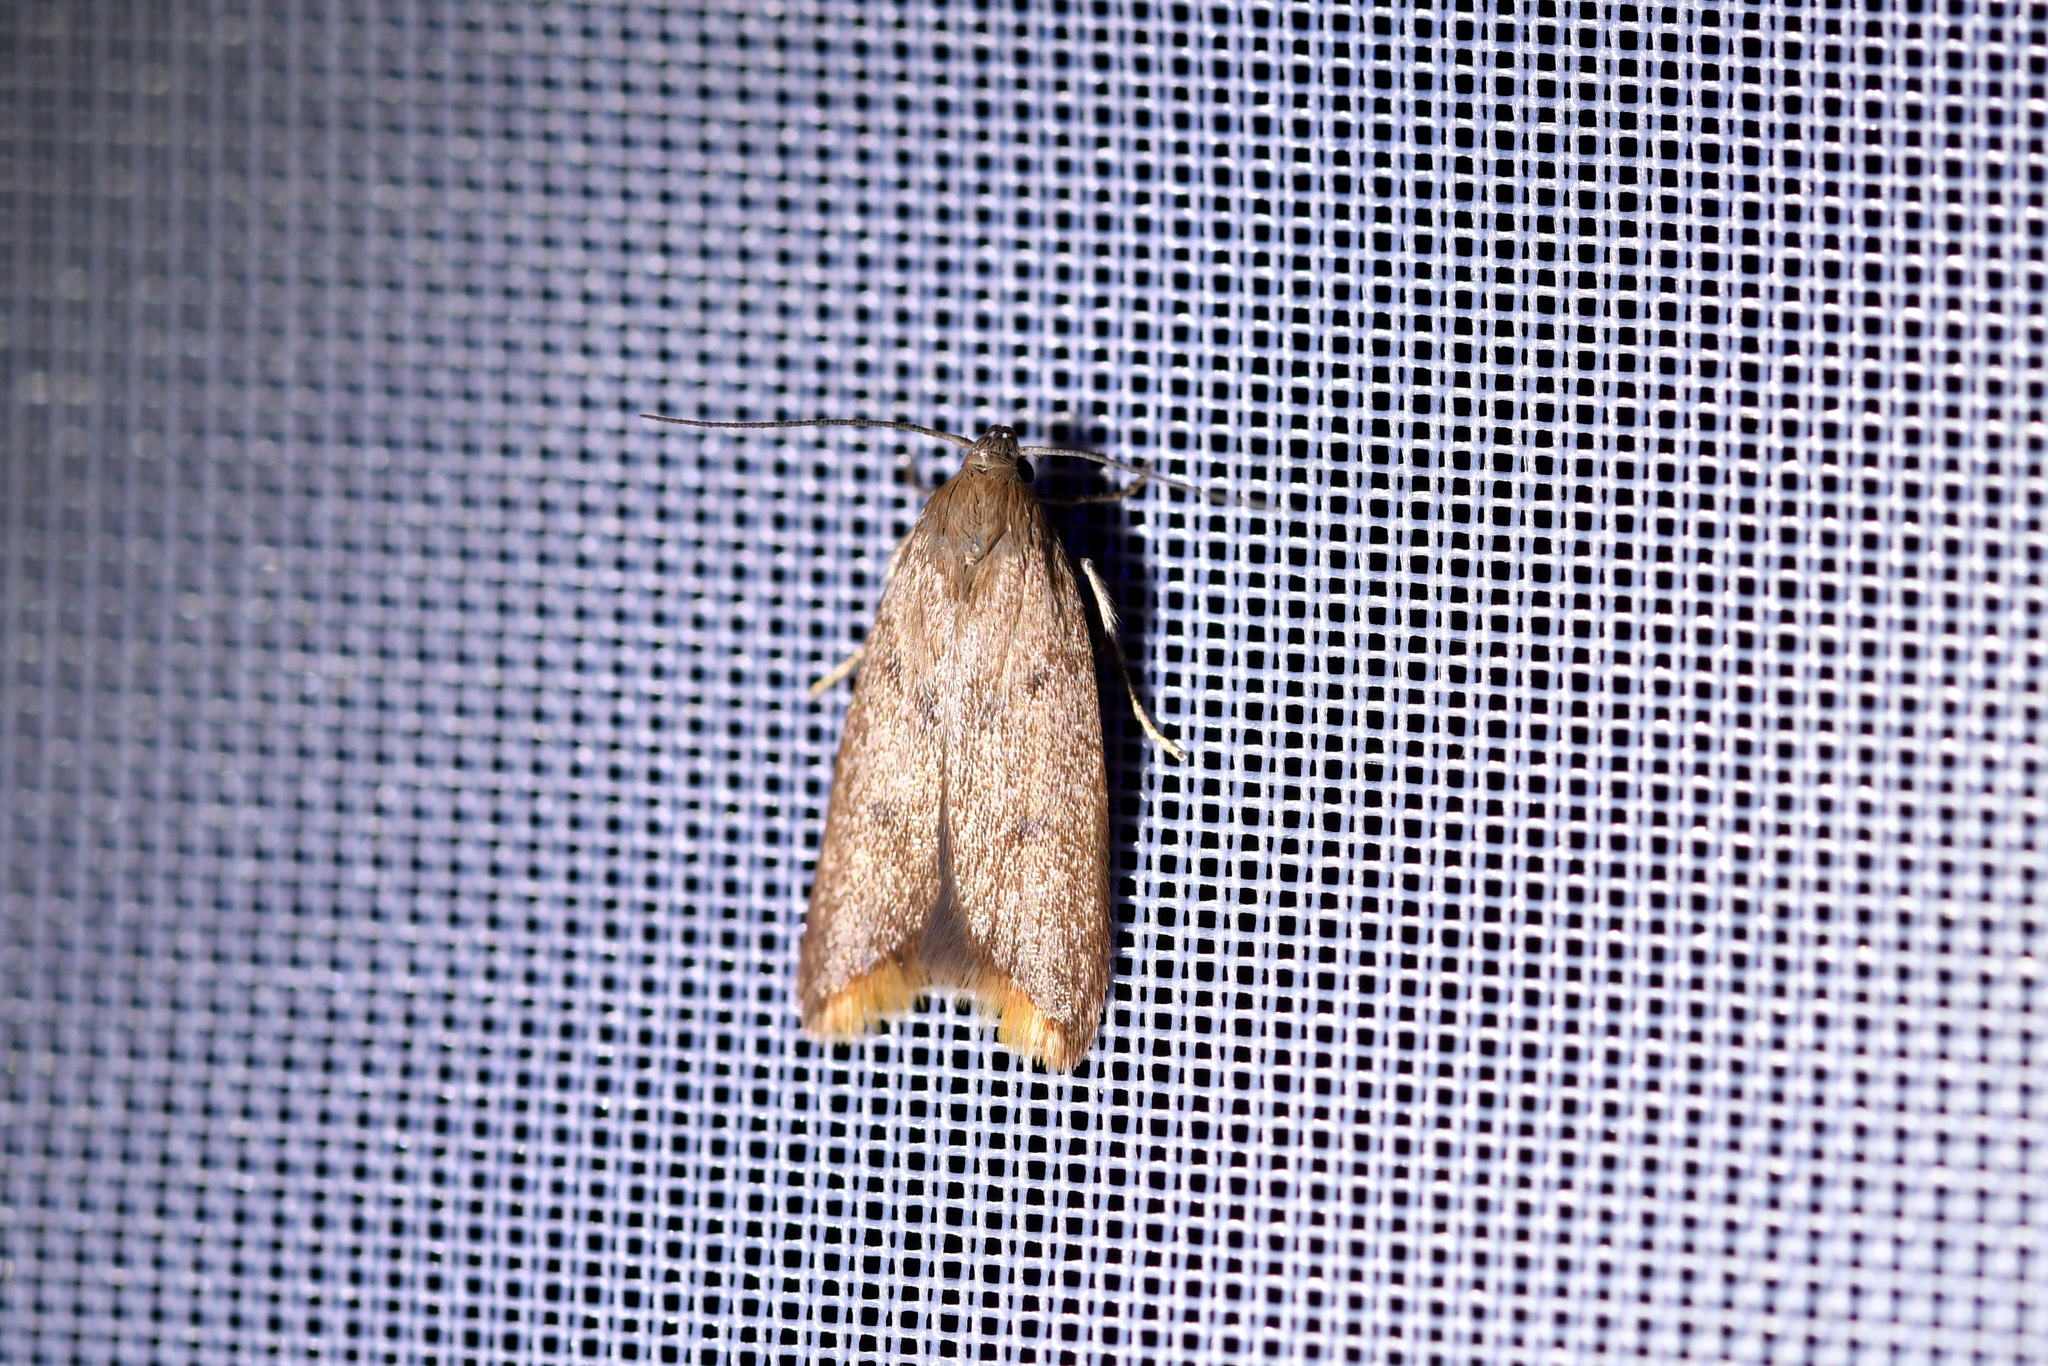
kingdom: Animalia
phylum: Arthropoda
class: Insecta
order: Lepidoptera
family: Oecophoridae
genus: Tachystola
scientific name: Tachystola acroxantha
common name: Ruddy streak
